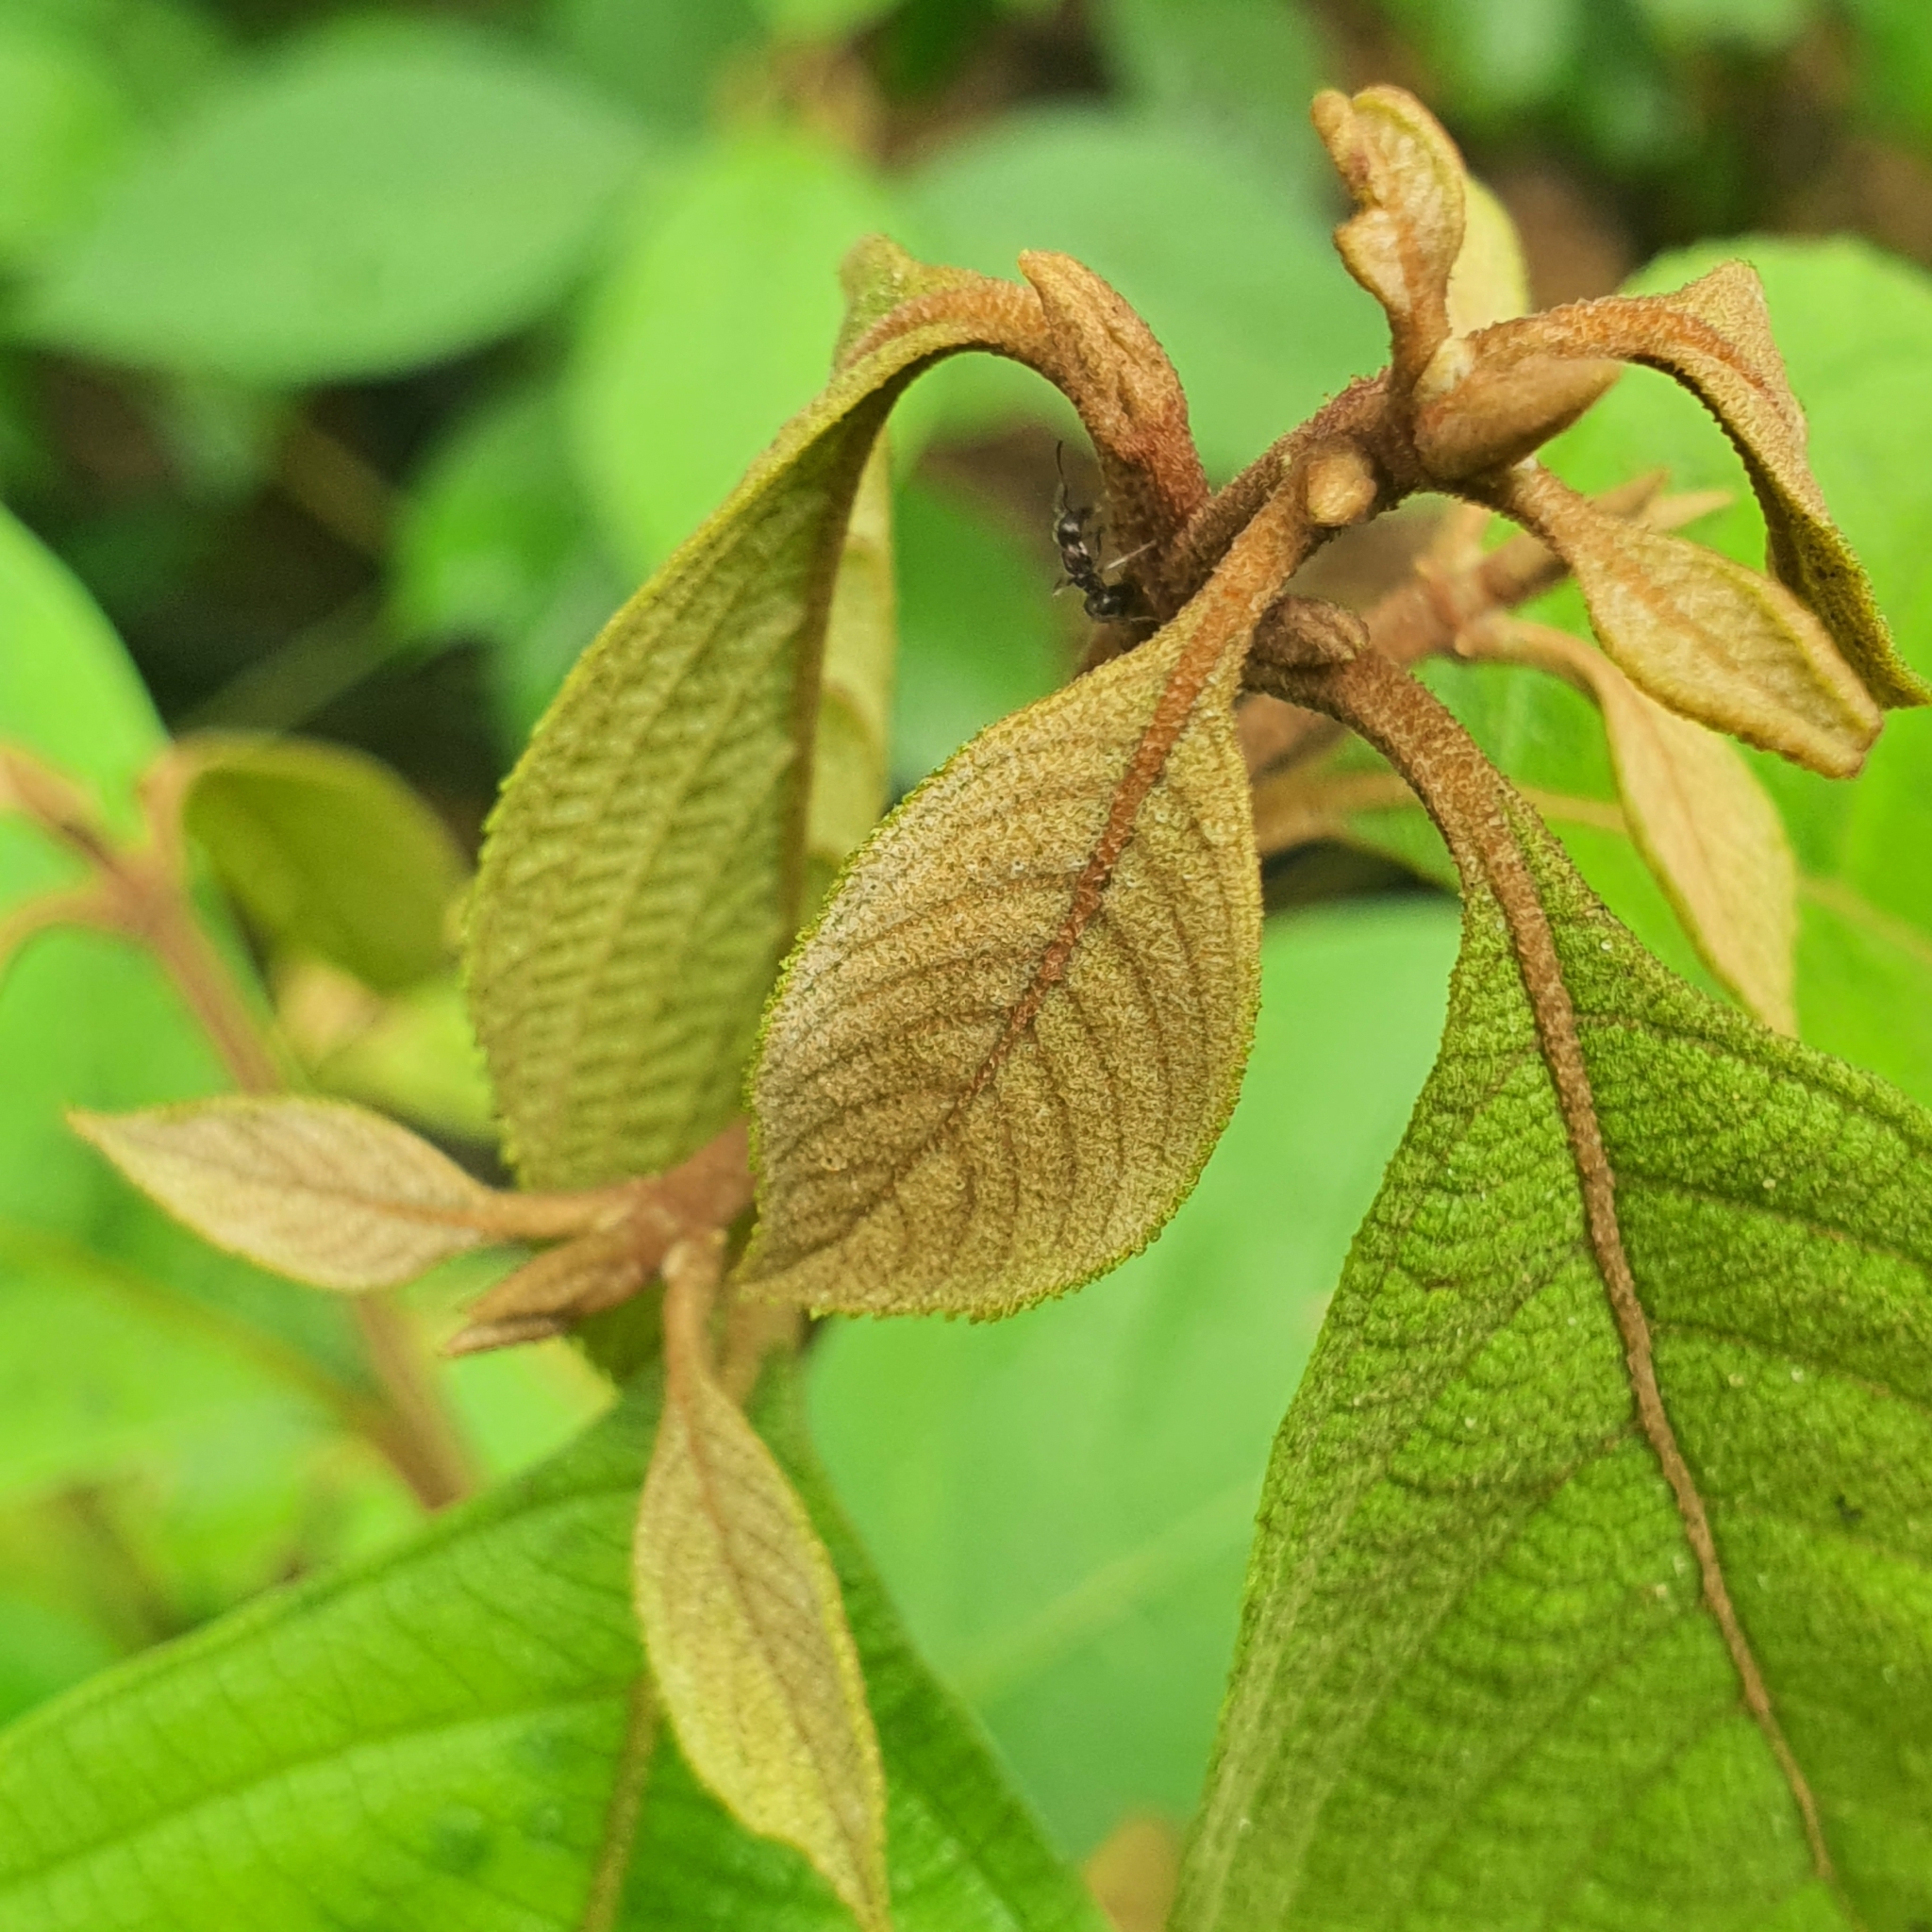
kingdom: Plantae
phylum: Tracheophyta
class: Magnoliopsida
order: Lamiales
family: Lamiaceae
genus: Callicarpa
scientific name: Callicarpa longifolia
